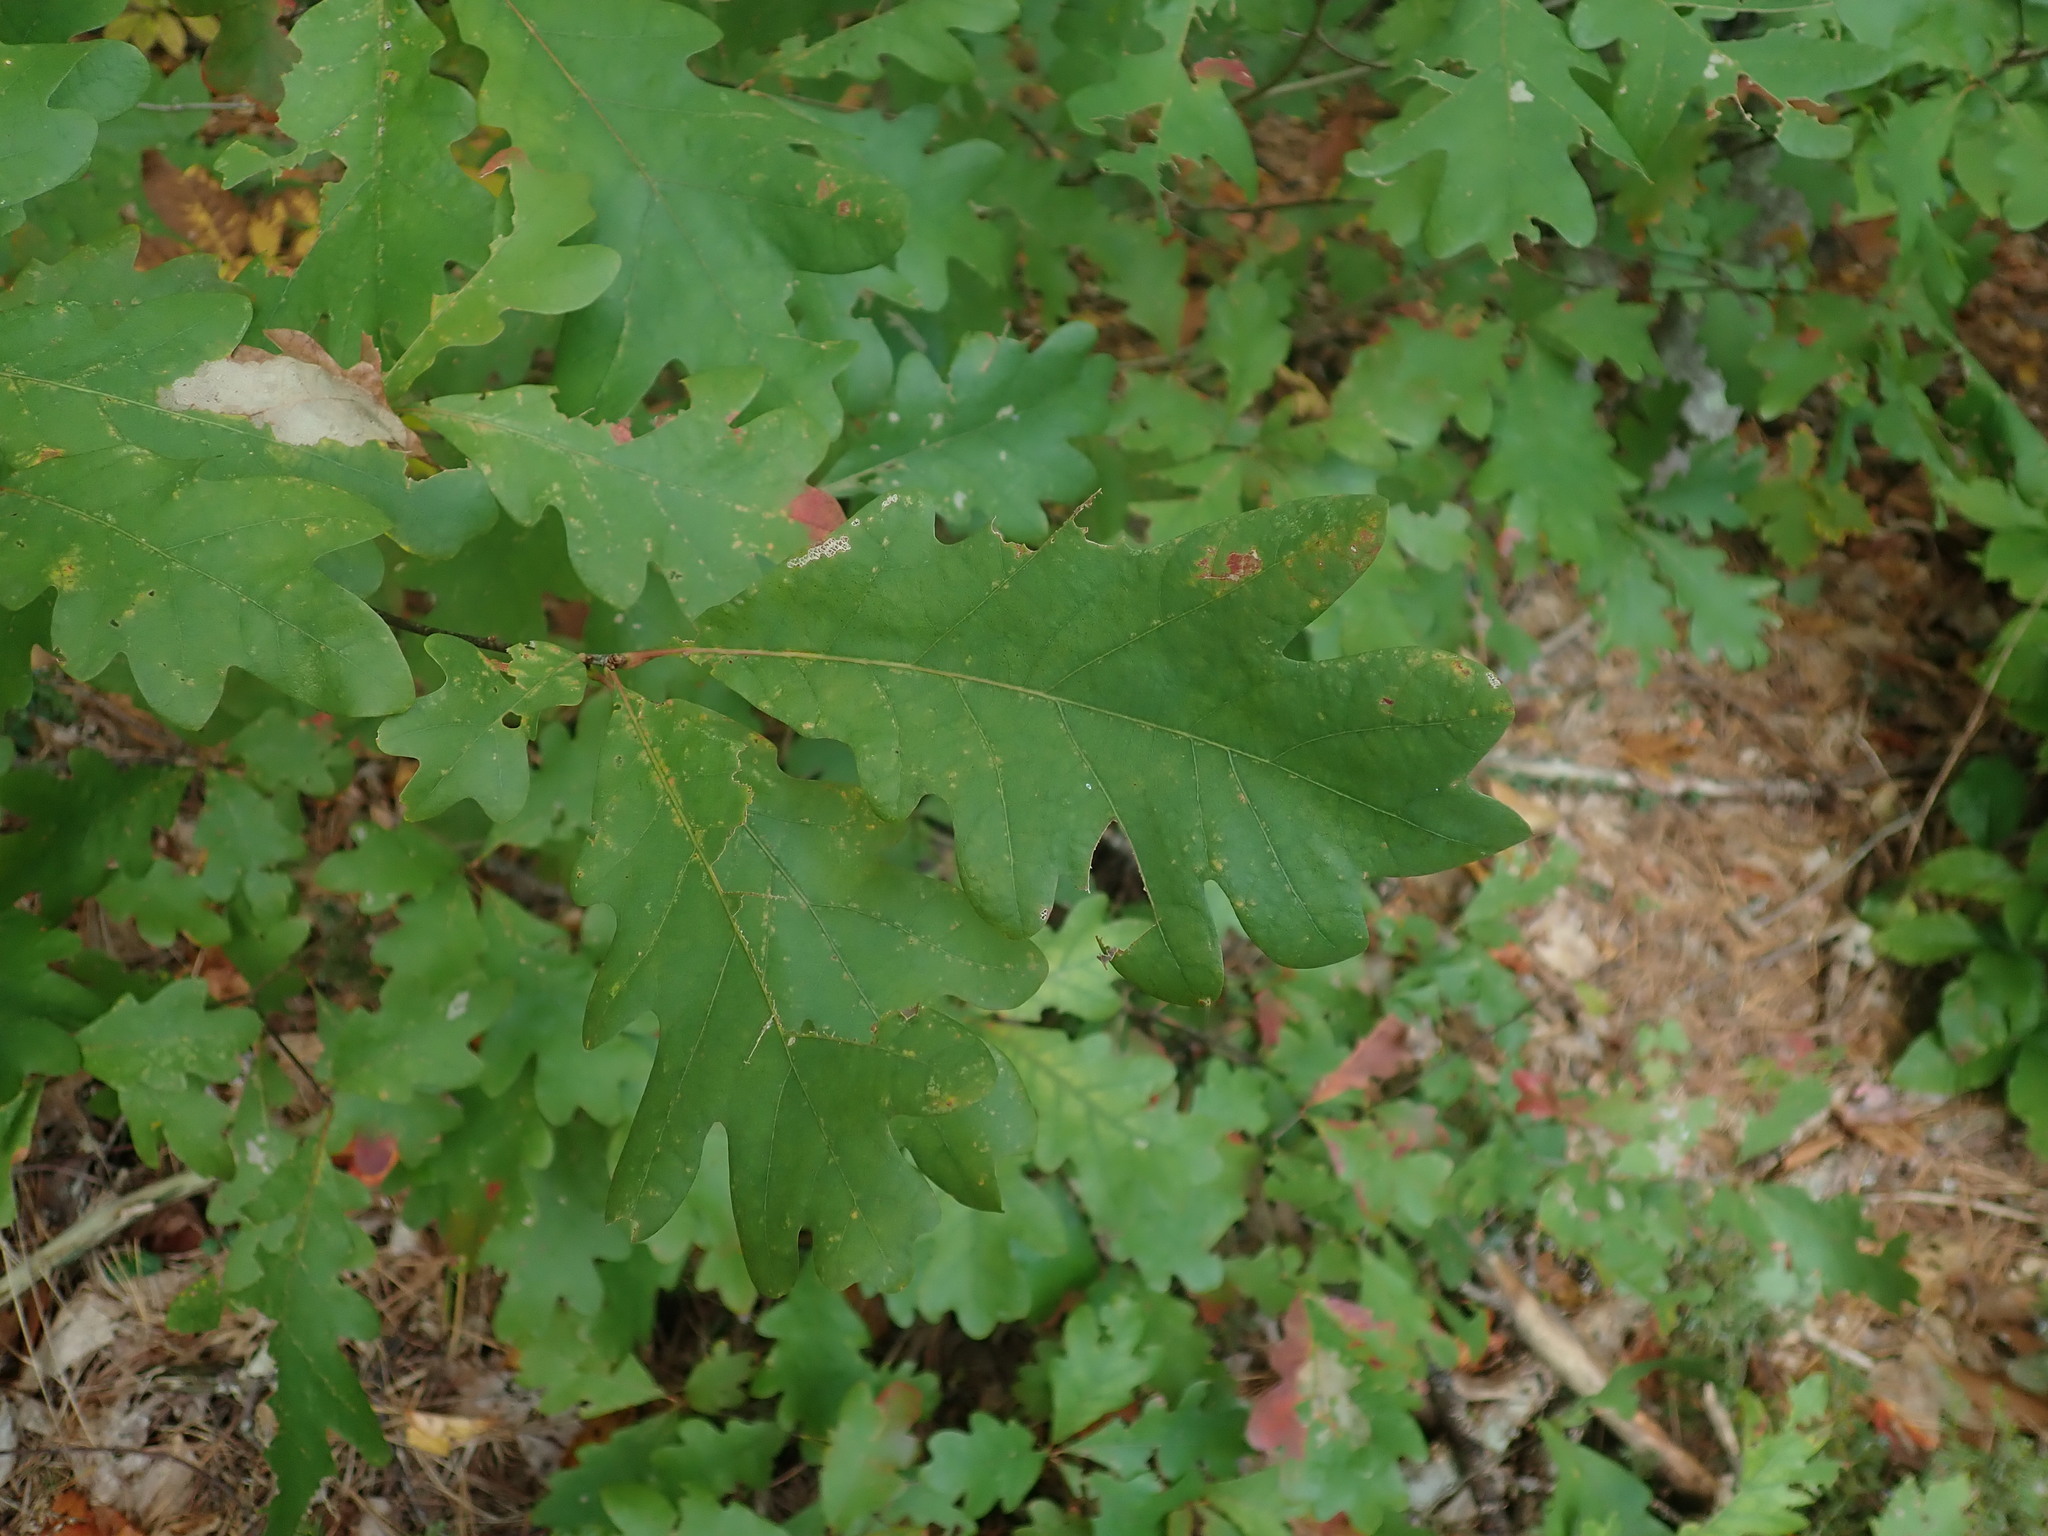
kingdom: Plantae
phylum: Tracheophyta
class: Magnoliopsida
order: Fagales
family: Fagaceae
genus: Quercus
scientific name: Quercus alba
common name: White oak
